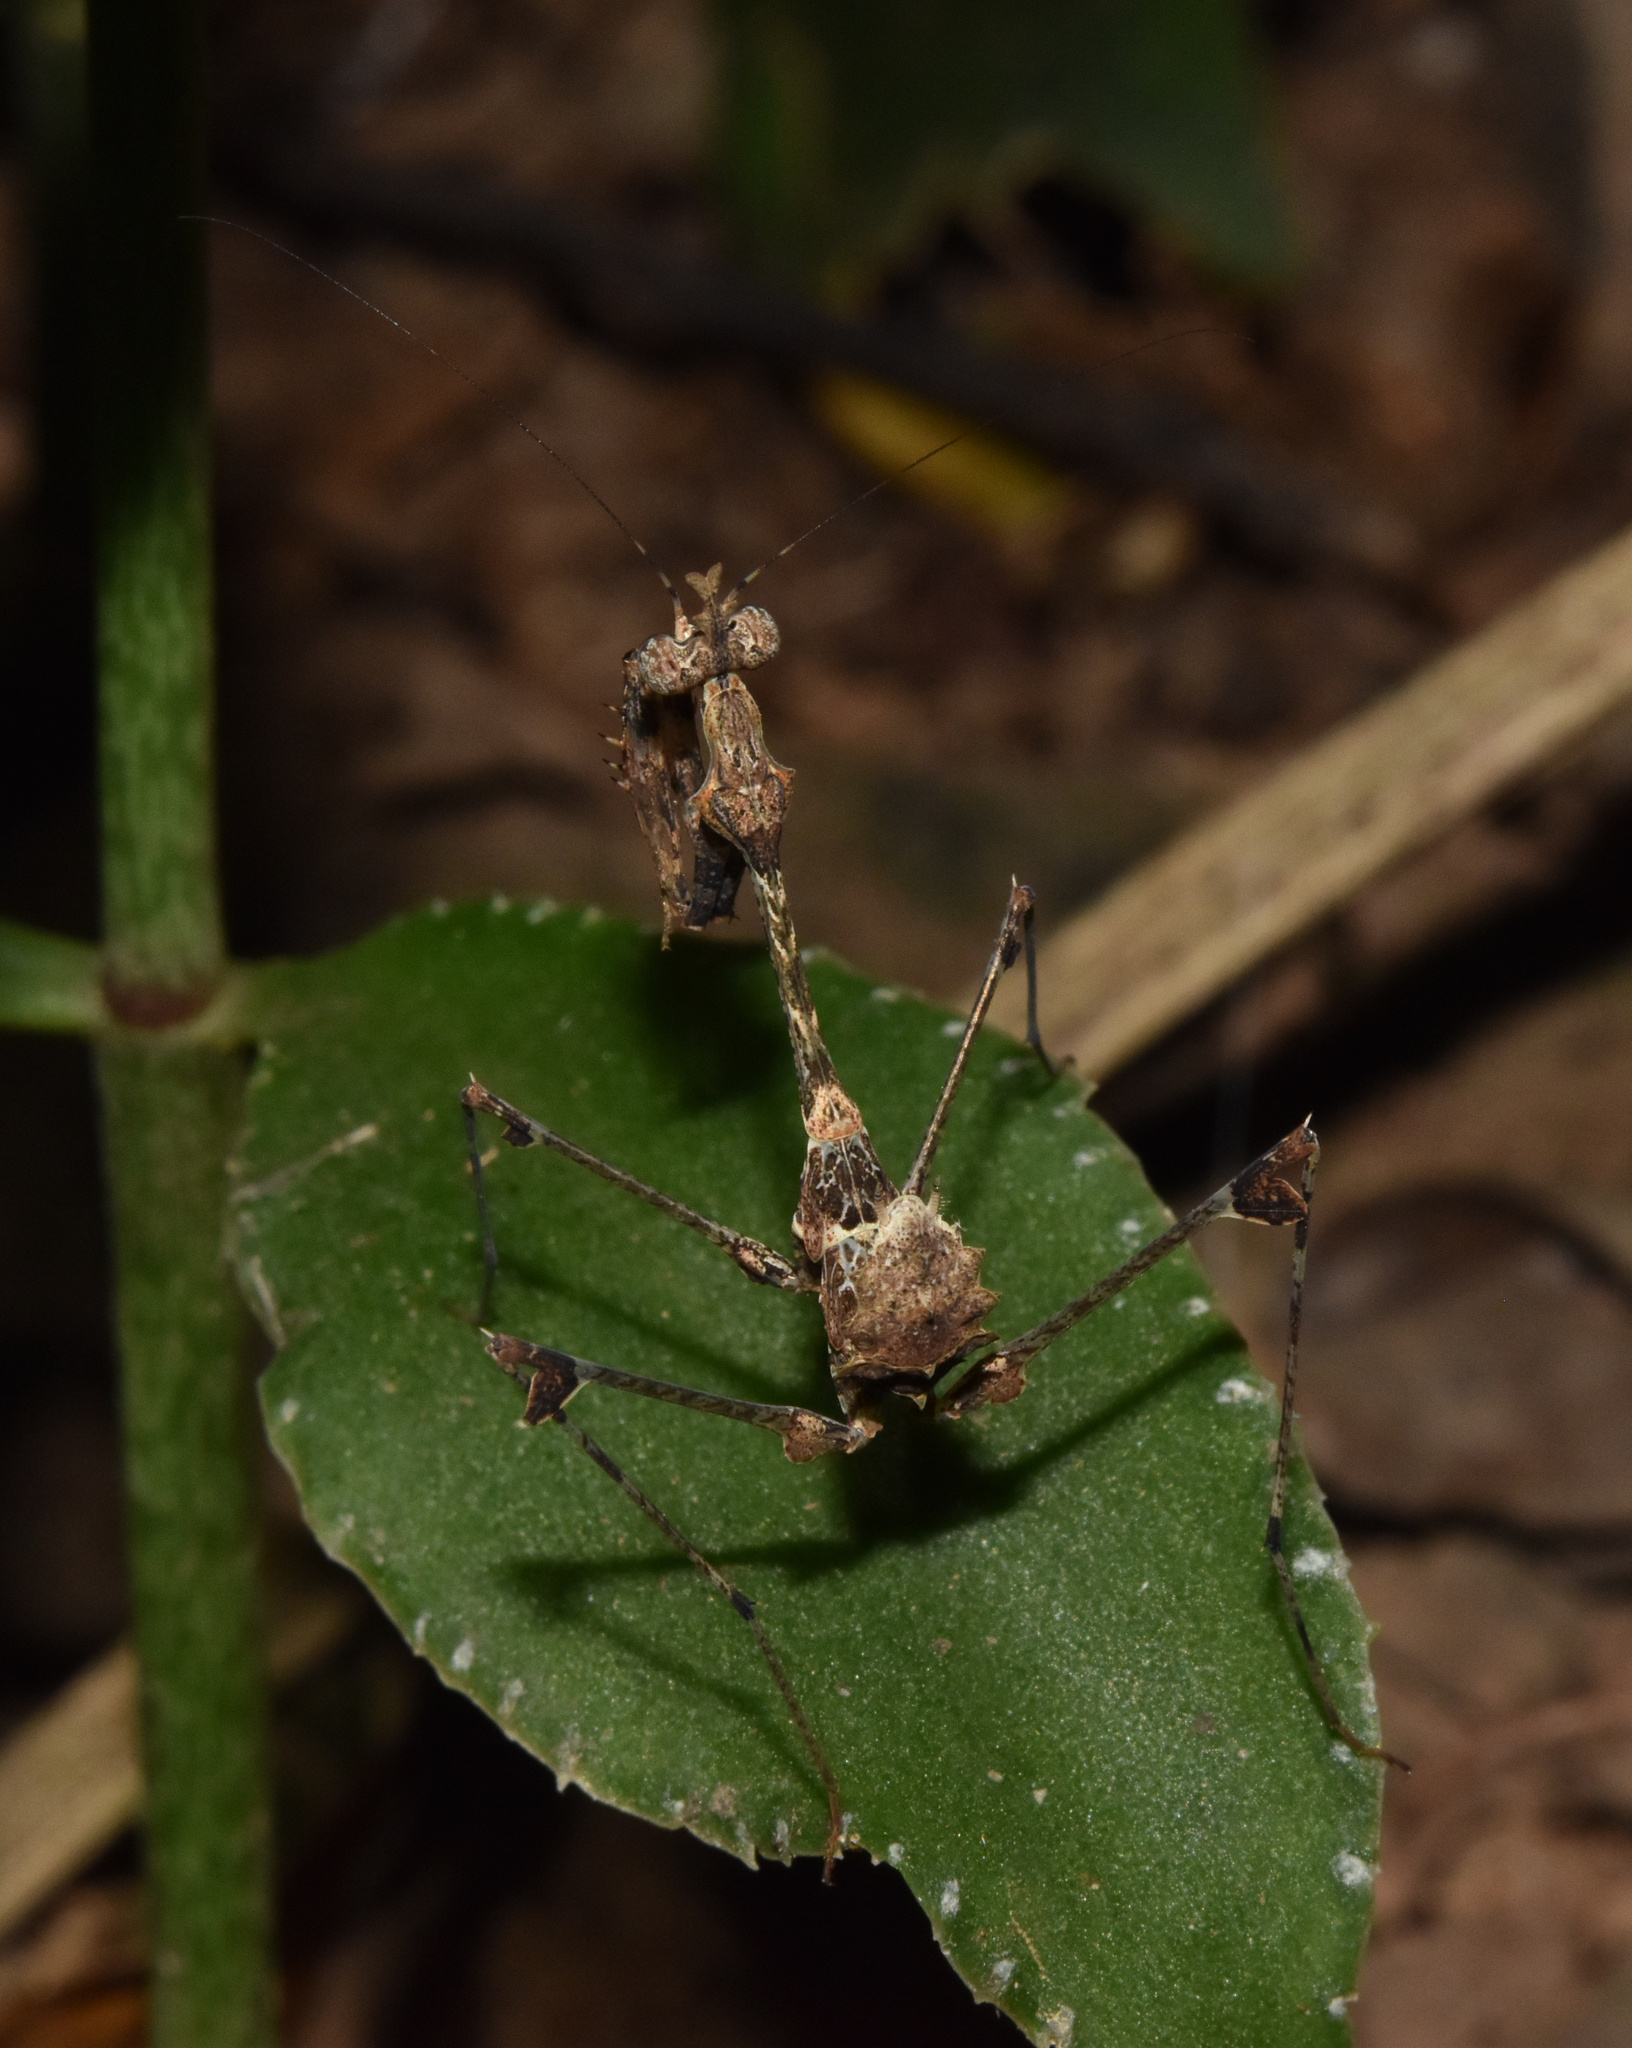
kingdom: Animalia
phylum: Arthropoda
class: Insecta
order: Mantodea
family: Hymenopodidae
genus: Sibylla
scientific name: Sibylla pretiosa
